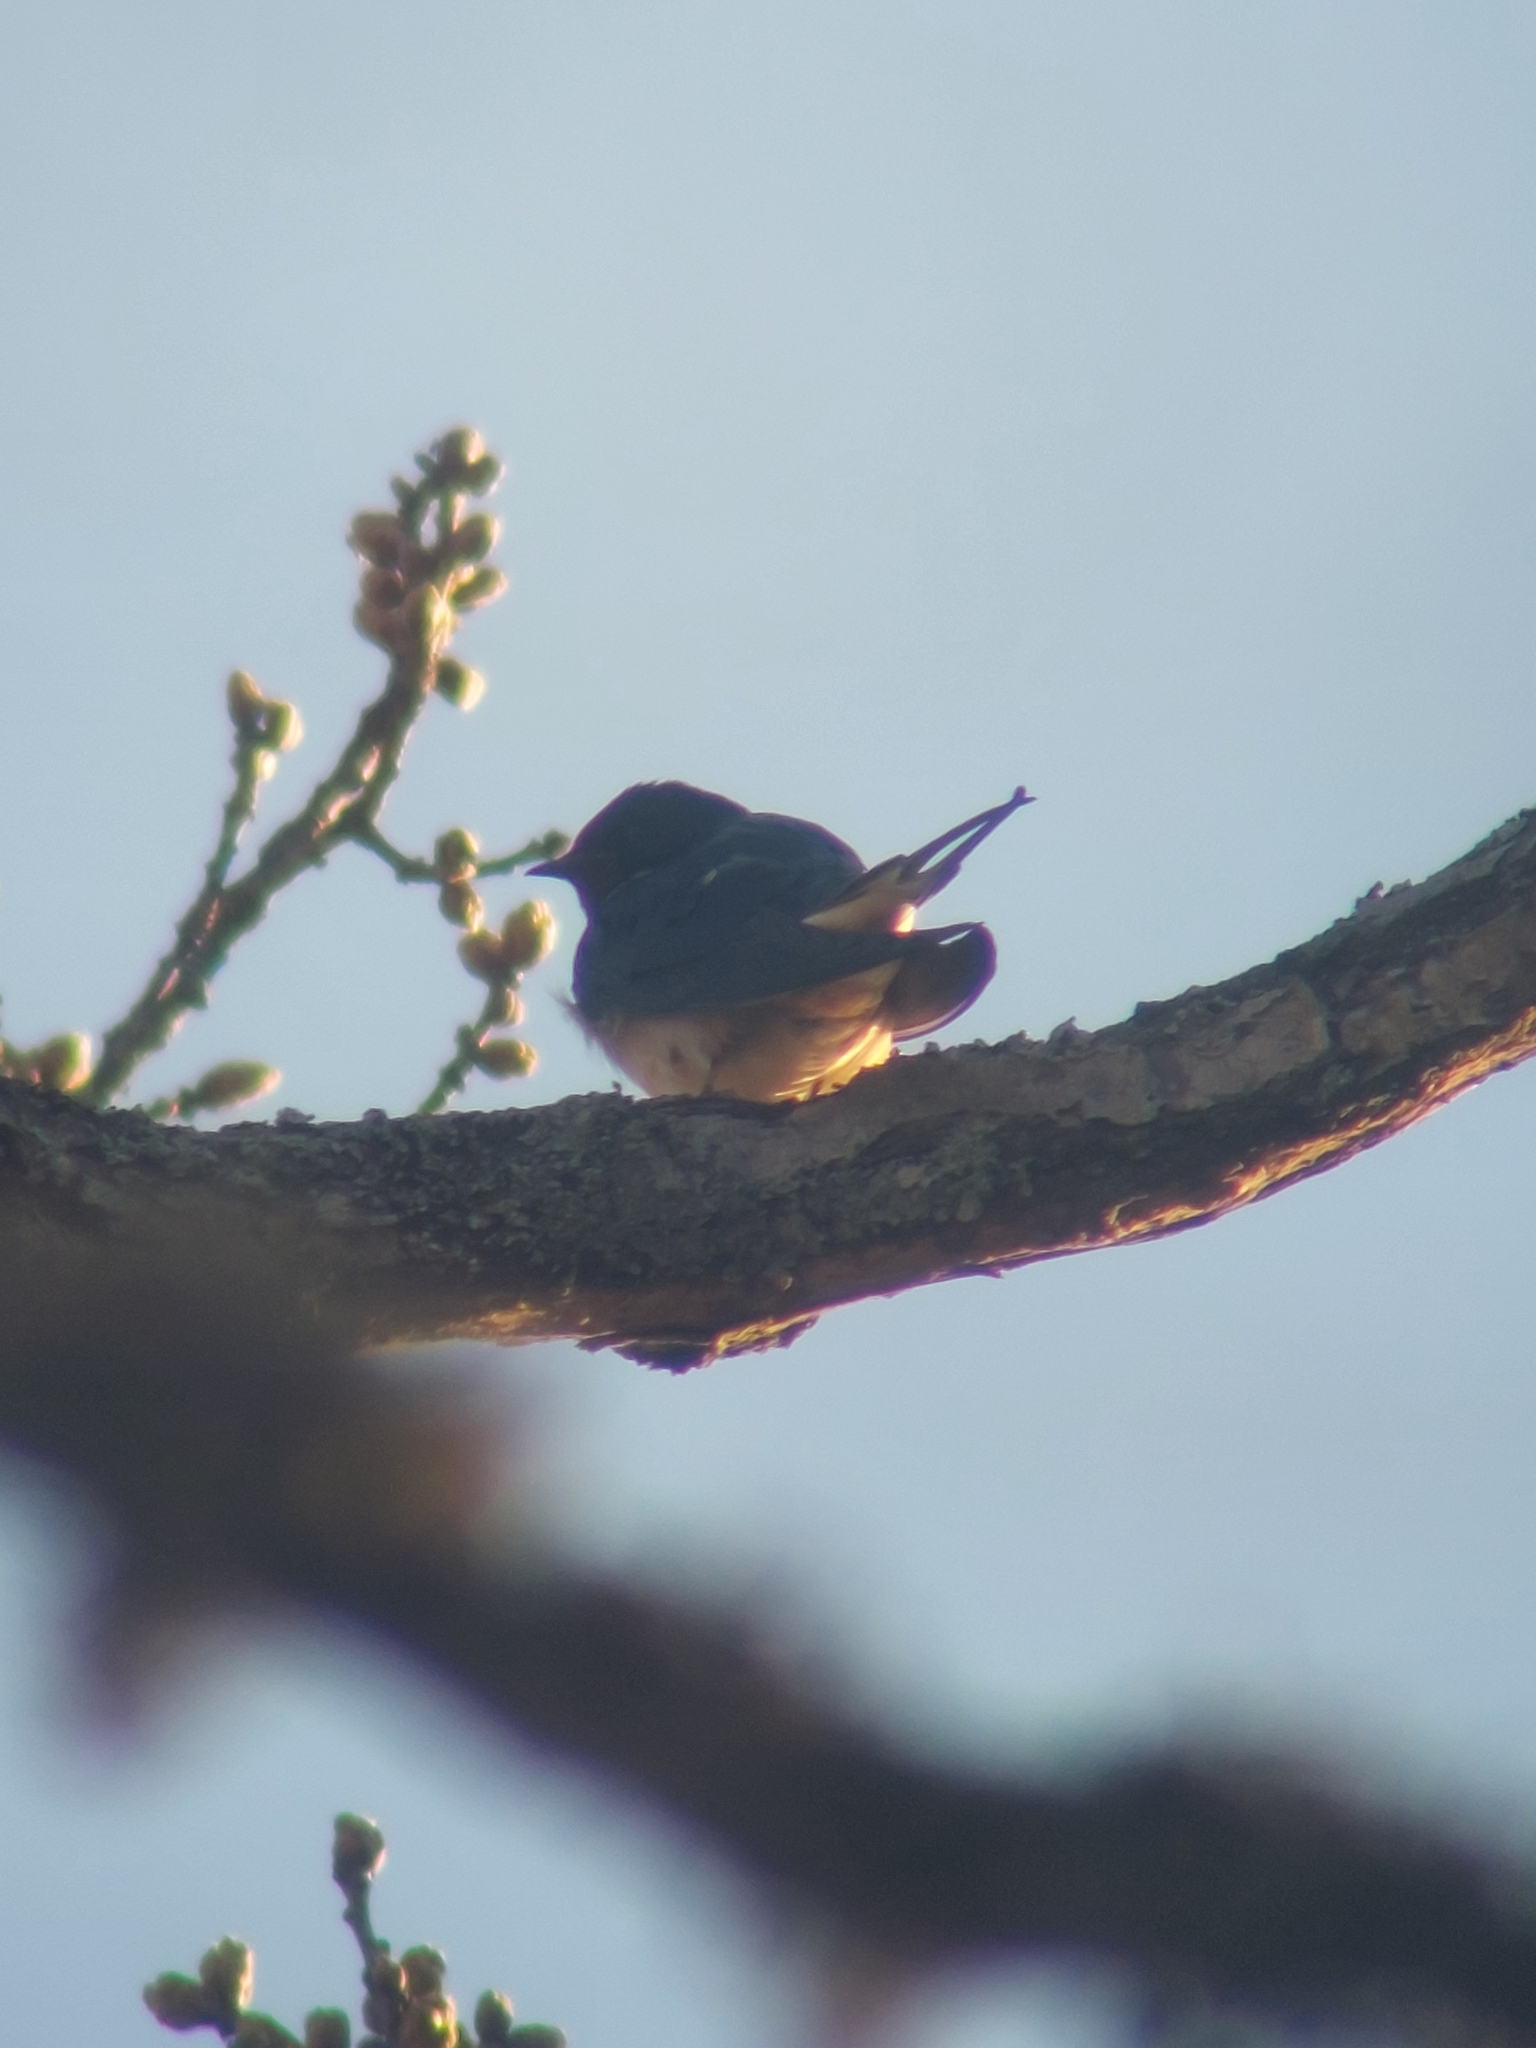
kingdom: Animalia
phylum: Chordata
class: Aves
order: Passeriformes
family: Hirundinidae
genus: Hirundo
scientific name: Hirundo rustica
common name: Barn swallow
